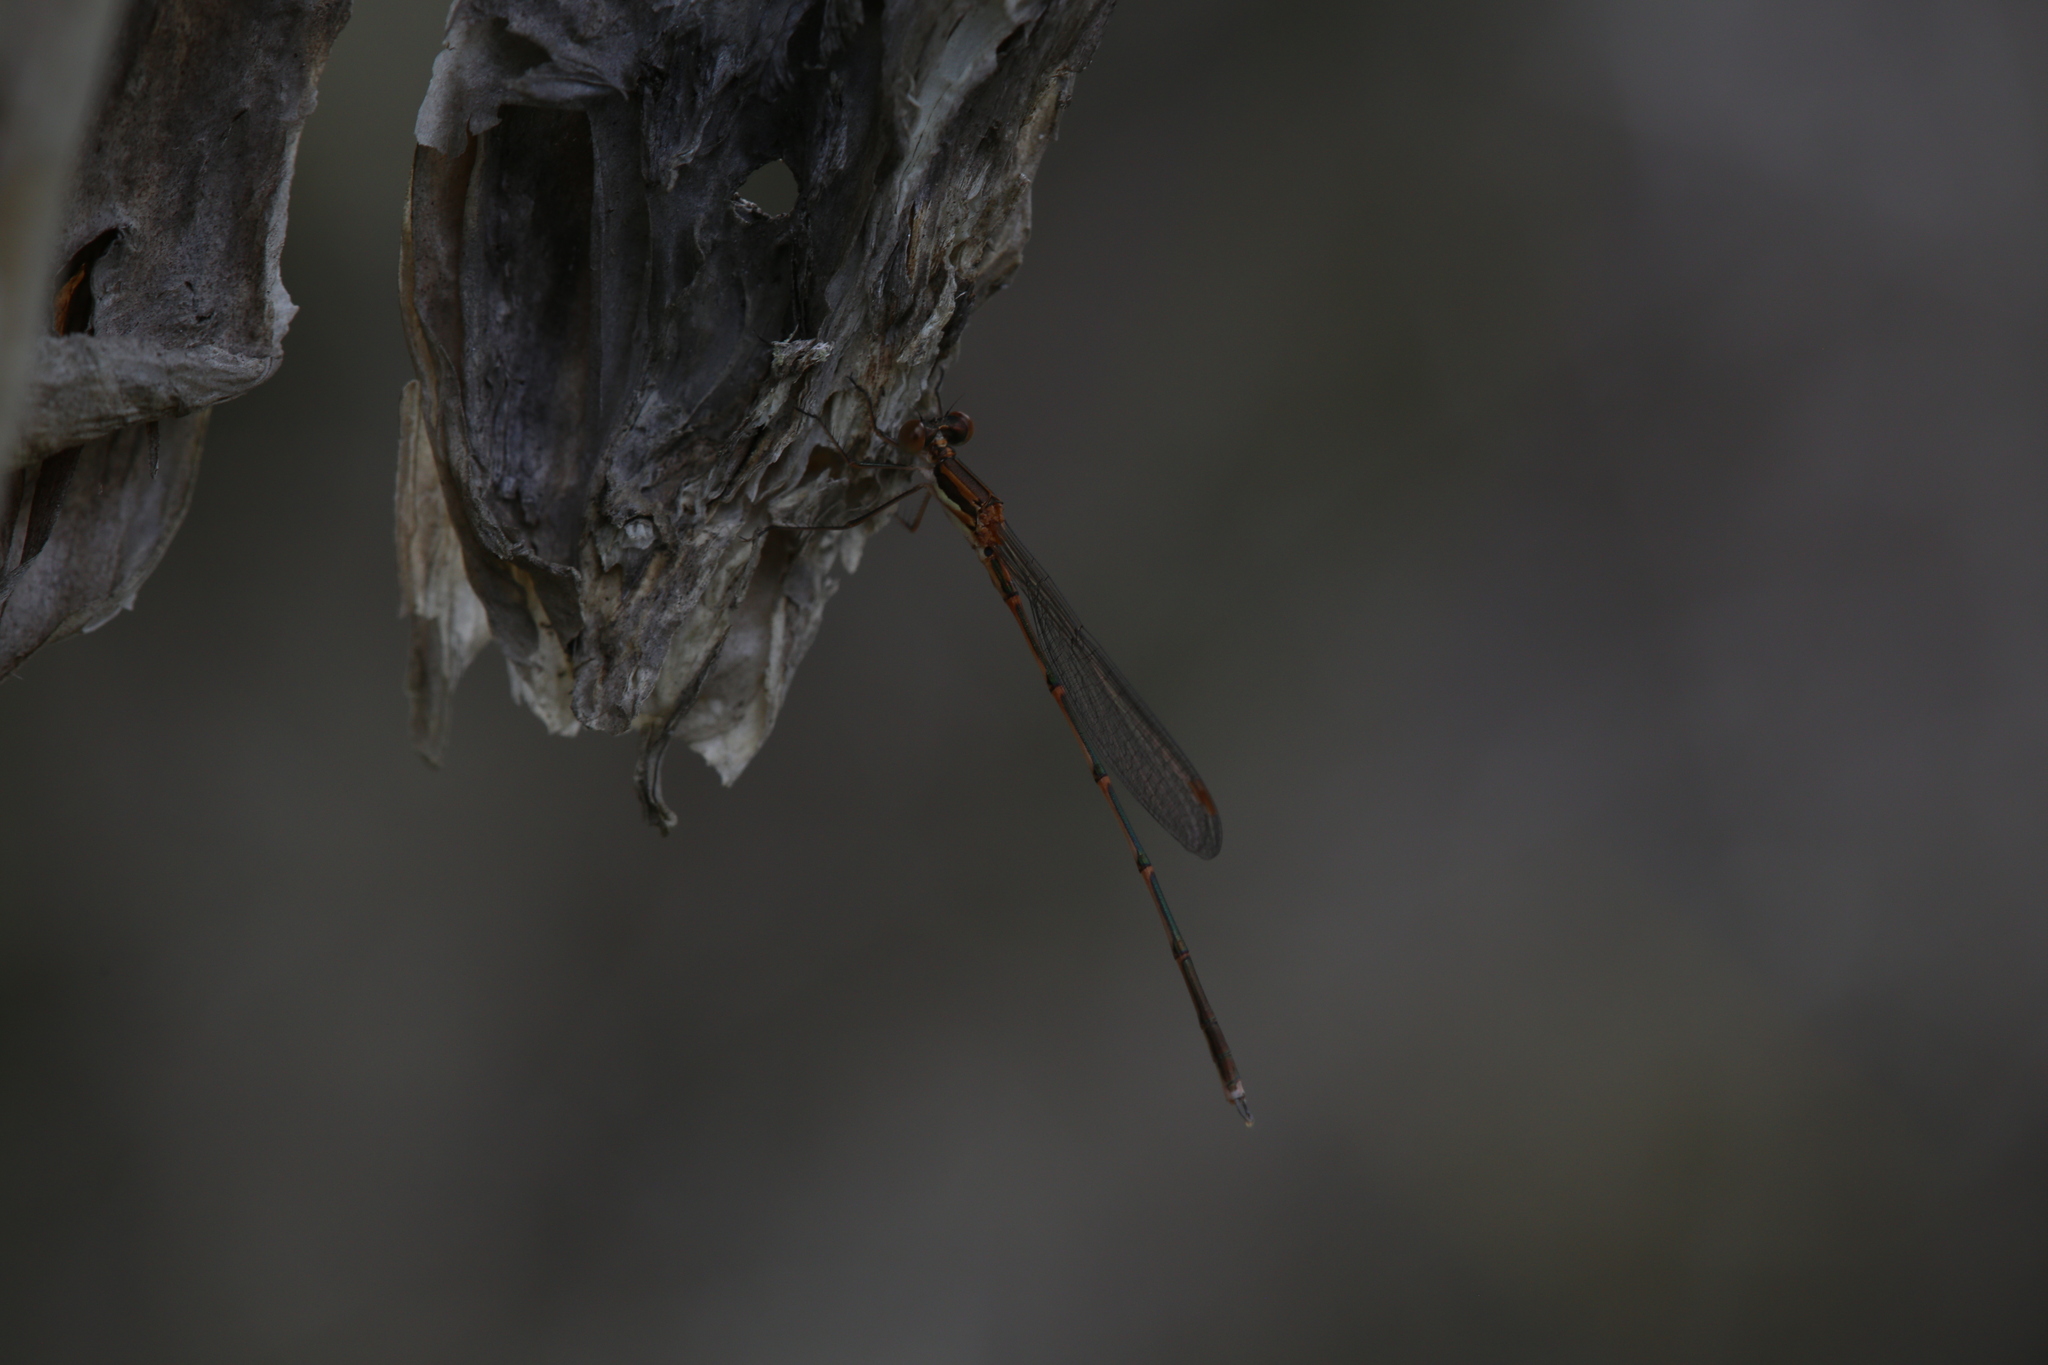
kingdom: Animalia
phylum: Arthropoda
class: Insecta
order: Odonata
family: Lestidae
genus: Austrolestes
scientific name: Austrolestes analis
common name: Slender ringtail
